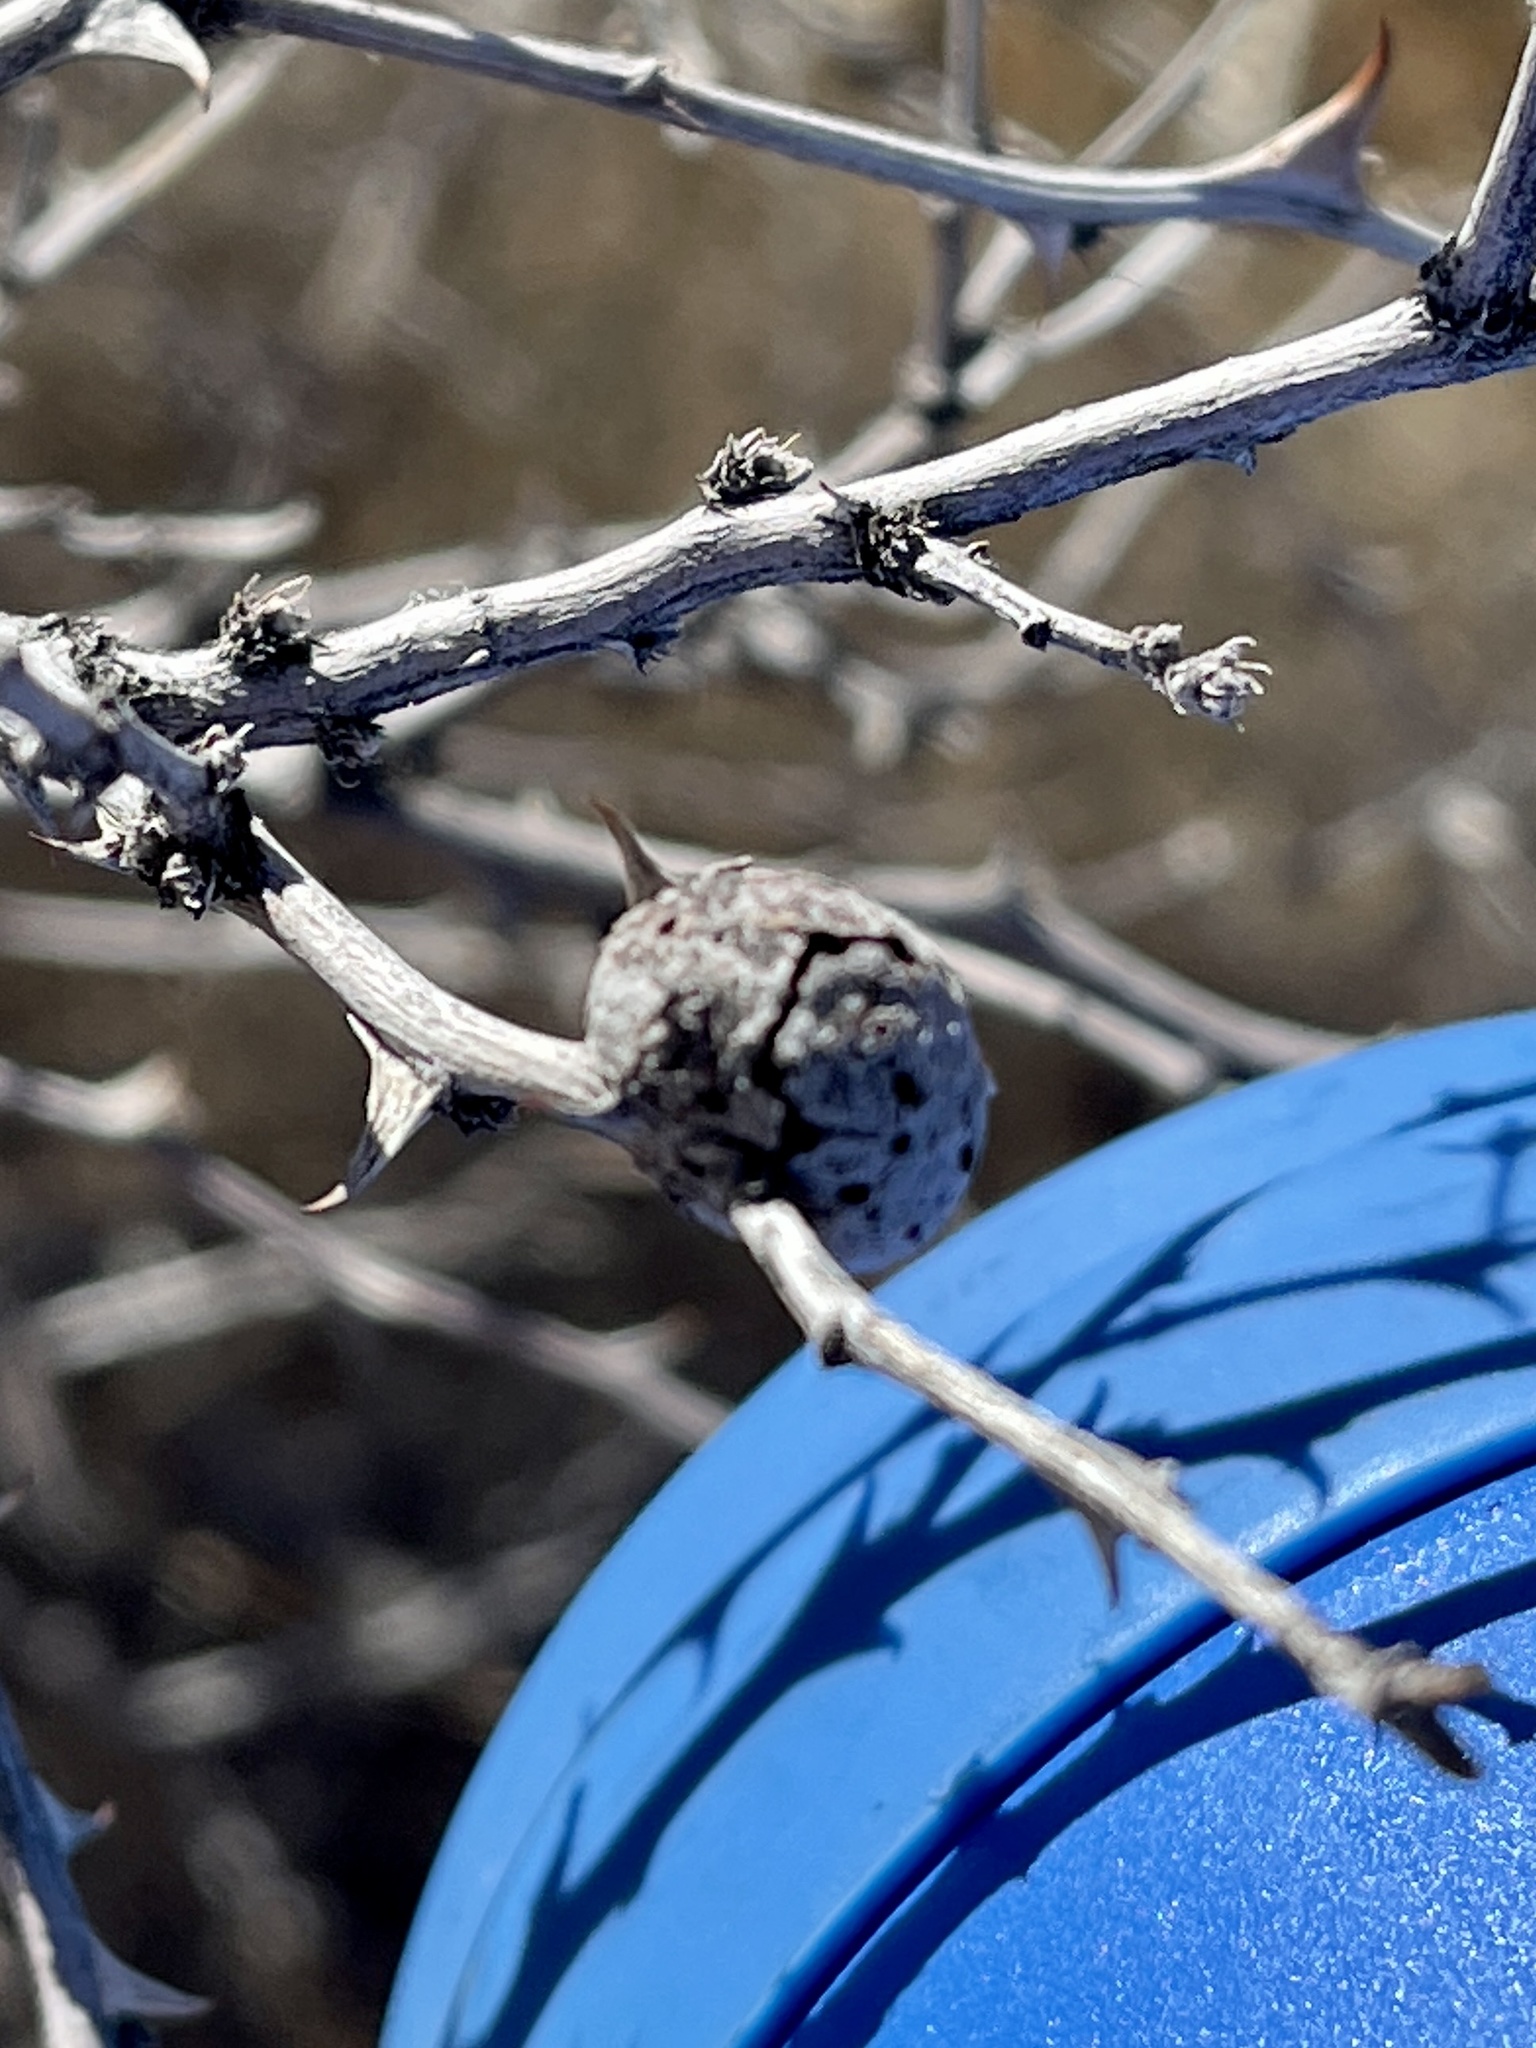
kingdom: Animalia
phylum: Arthropoda
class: Insecta
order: Hymenoptera
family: Tanaostigmatidae
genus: Tanaostigmodes
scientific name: Tanaostigmodes howardii
